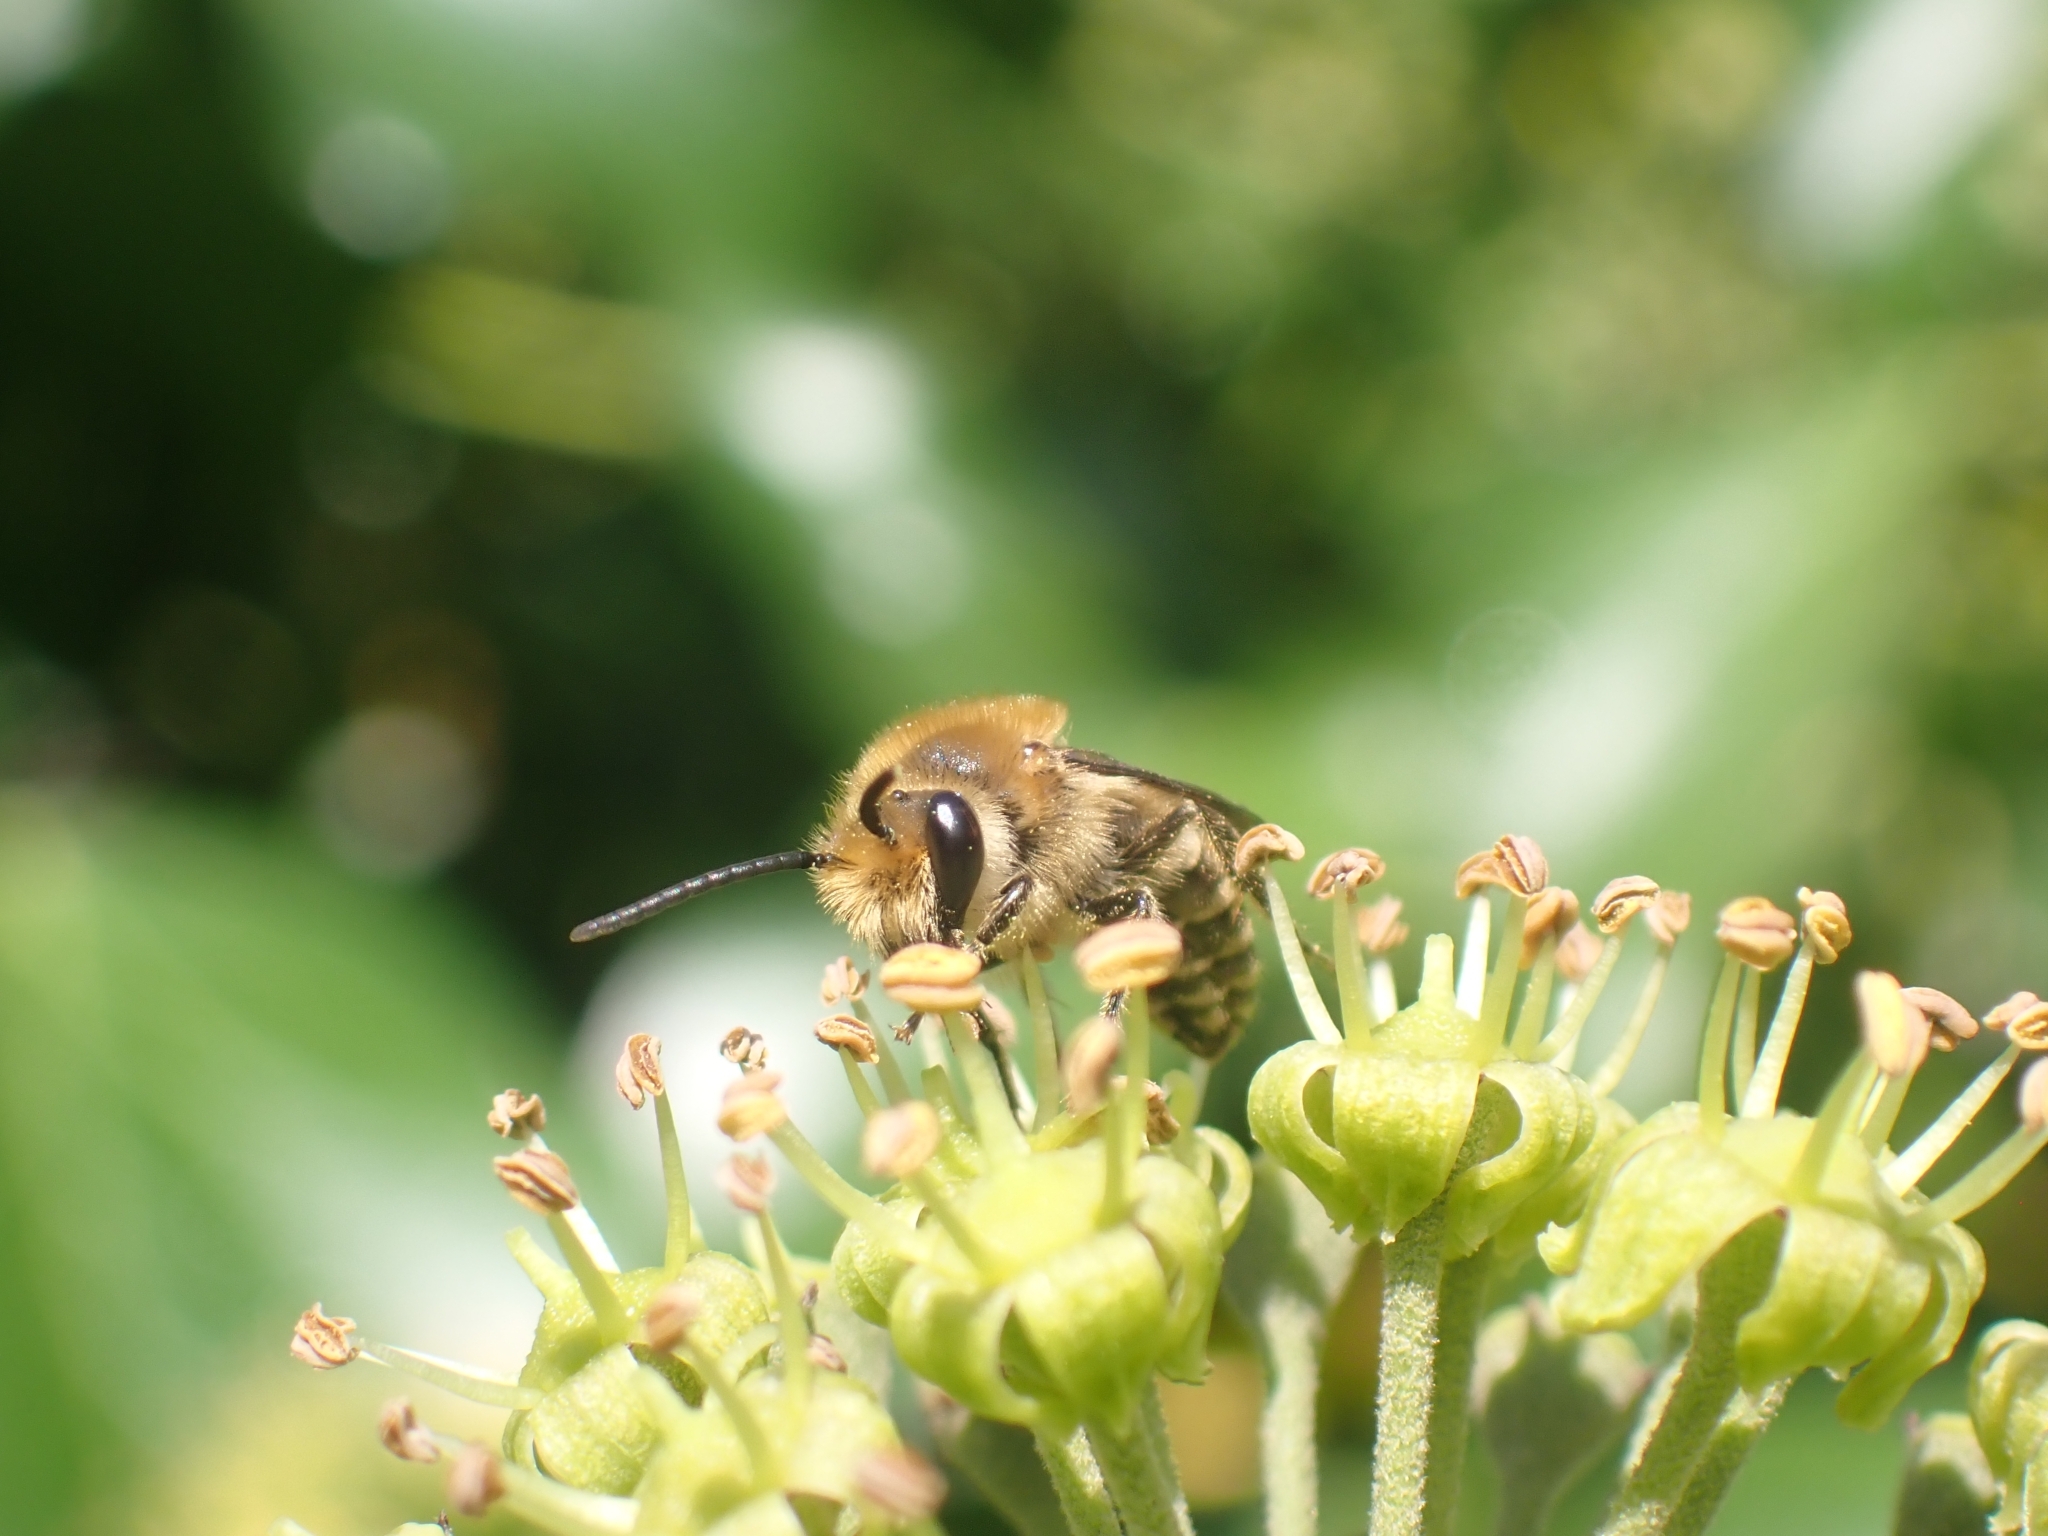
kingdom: Animalia
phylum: Arthropoda
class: Insecta
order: Hymenoptera
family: Colletidae
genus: Colletes
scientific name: Colletes hederae
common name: Ivy bee
